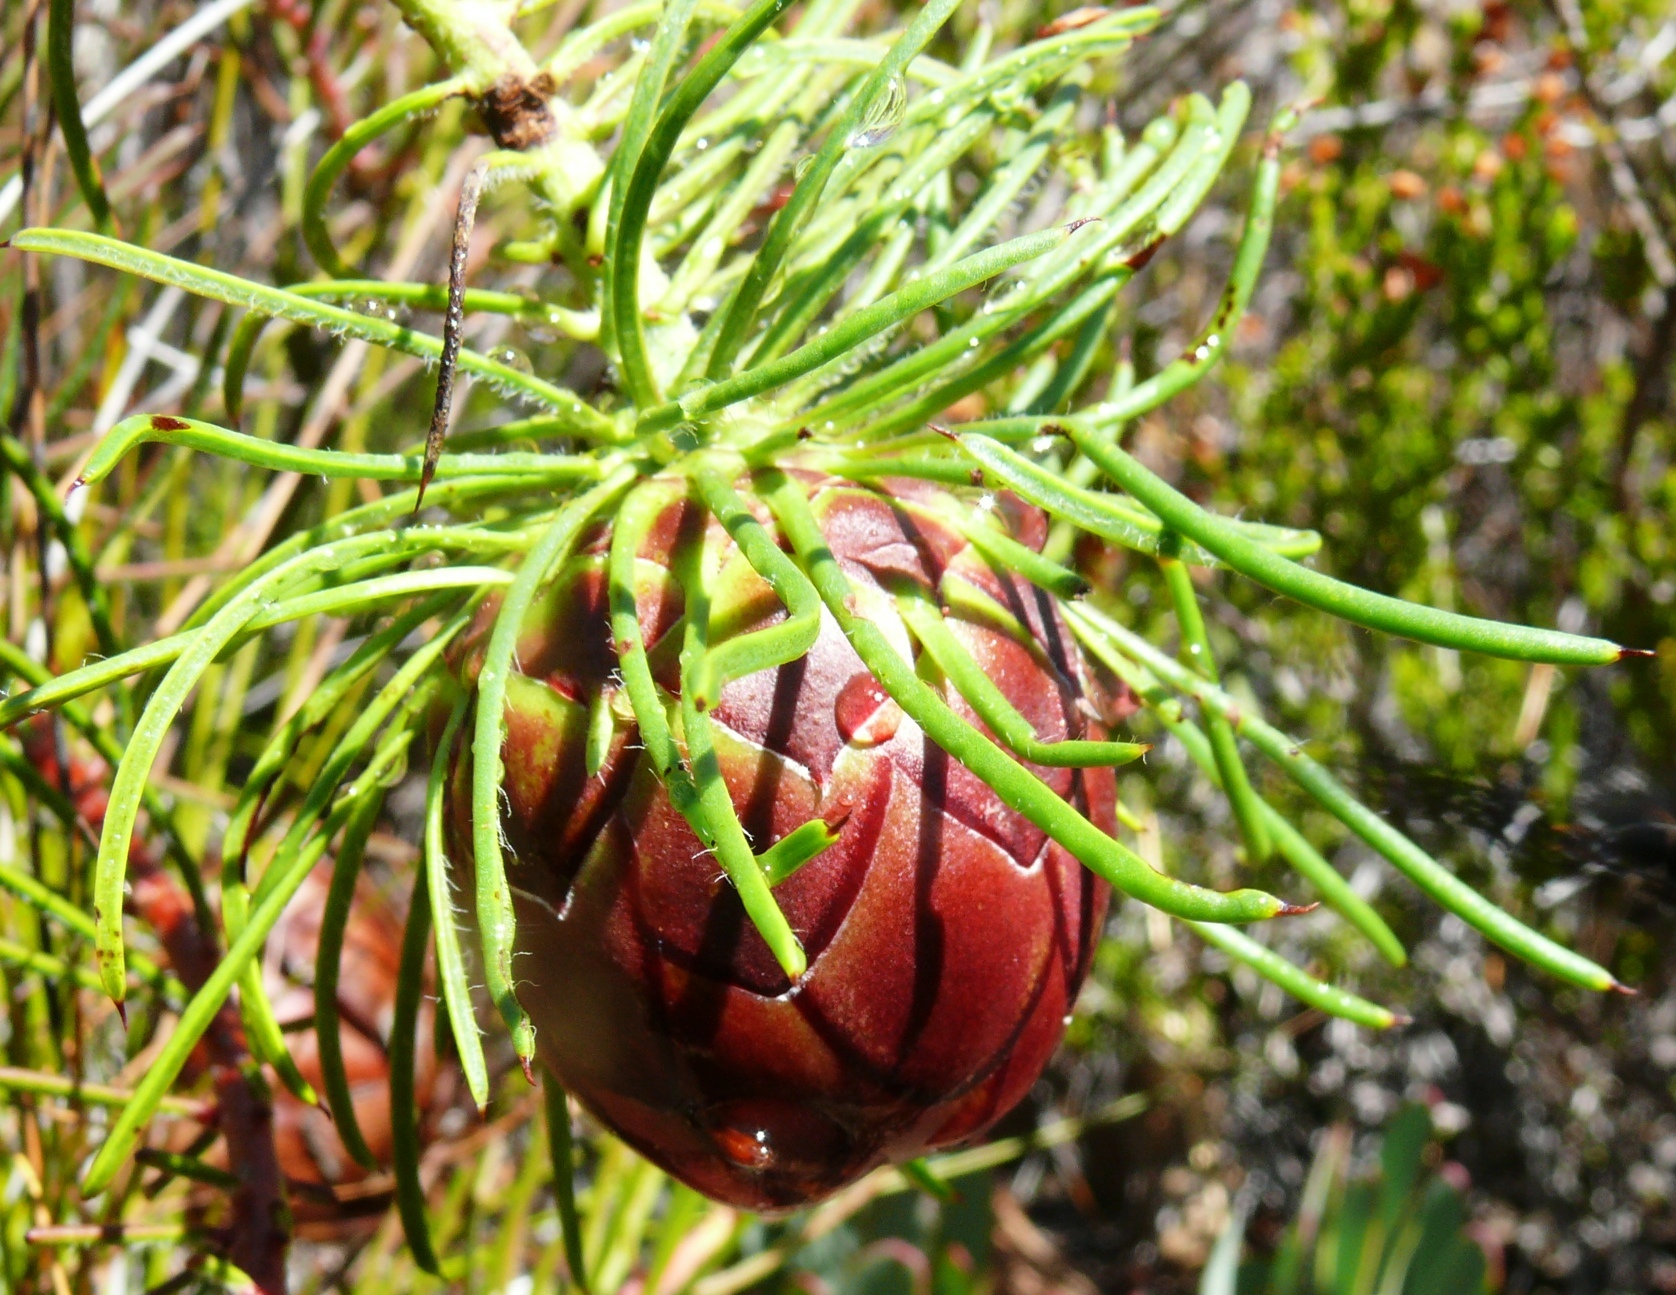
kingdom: Plantae
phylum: Tracheophyta
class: Magnoliopsida
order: Proteales
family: Proteaceae
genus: Protea
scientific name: Protea witzenbergiana
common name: Swan sugarbush
